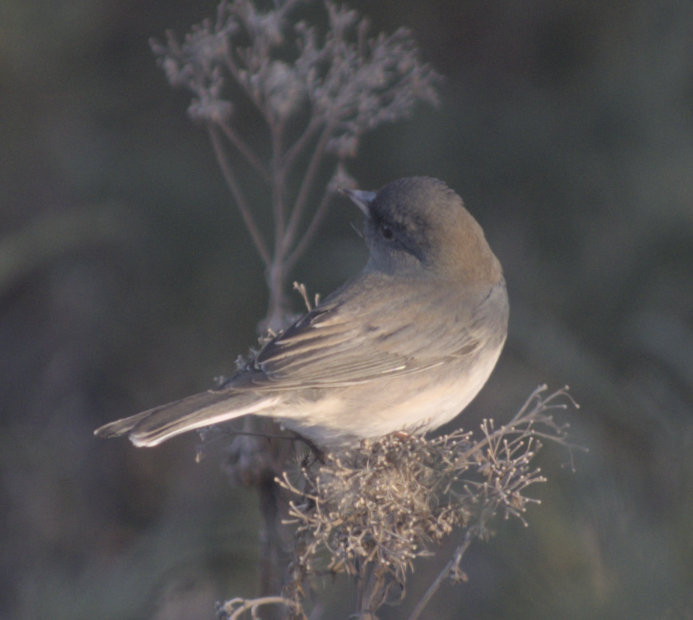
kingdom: Animalia
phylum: Chordata
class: Aves
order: Passeriformes
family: Passerellidae
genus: Junco
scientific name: Junco hyemalis
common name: Dark-eyed junco
